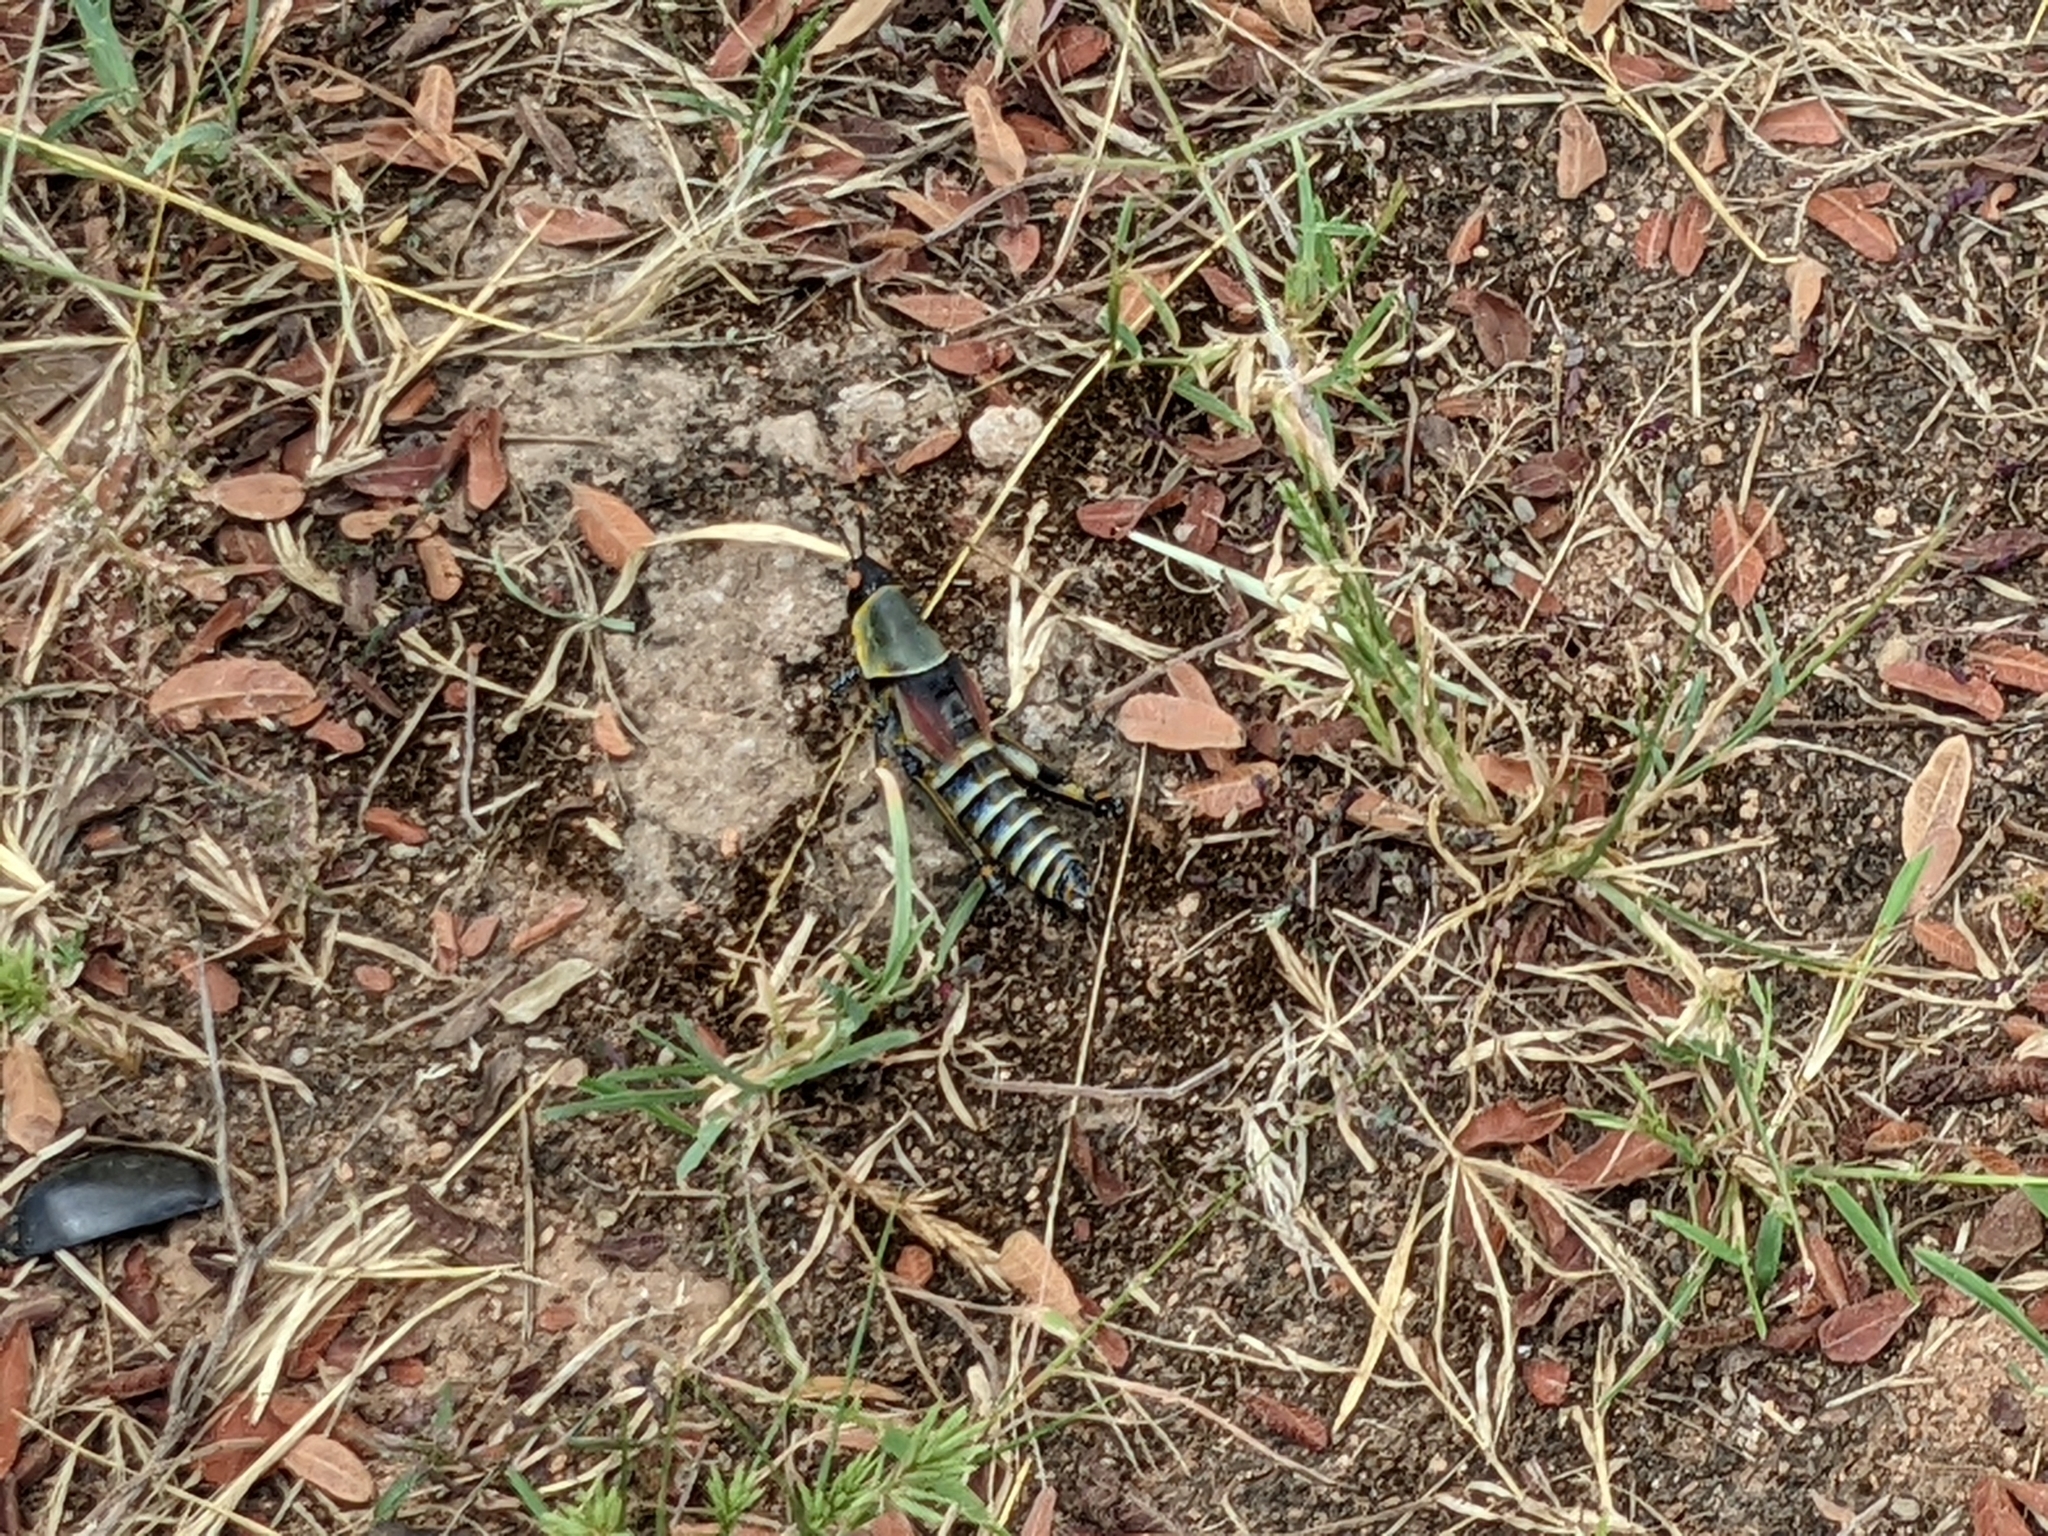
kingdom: Animalia
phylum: Arthropoda
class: Insecta
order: Orthoptera
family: Pyrgomorphidae
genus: Zonocerus
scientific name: Zonocerus elegans
